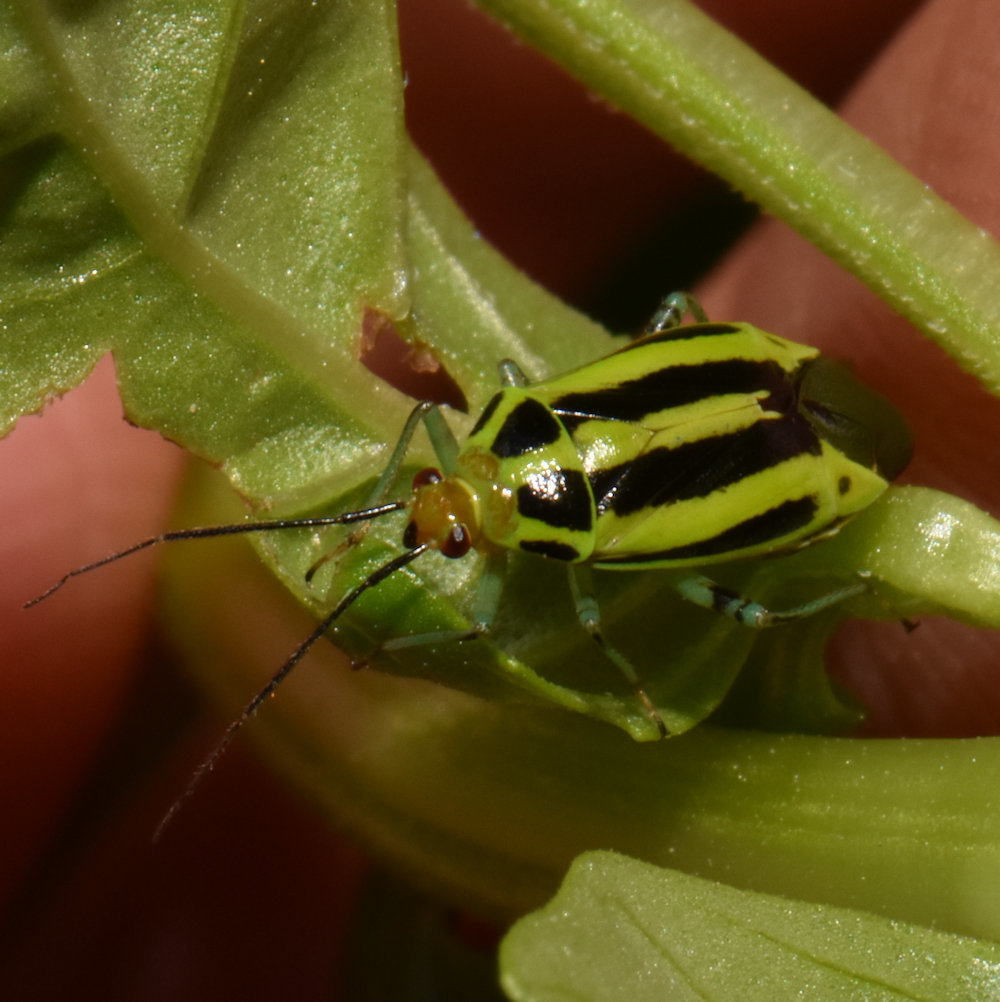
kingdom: Animalia
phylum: Arthropoda
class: Insecta
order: Hemiptera
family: Miridae
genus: Poecilocapsus
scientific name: Poecilocapsus lineatus
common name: Four-lined plant bug
